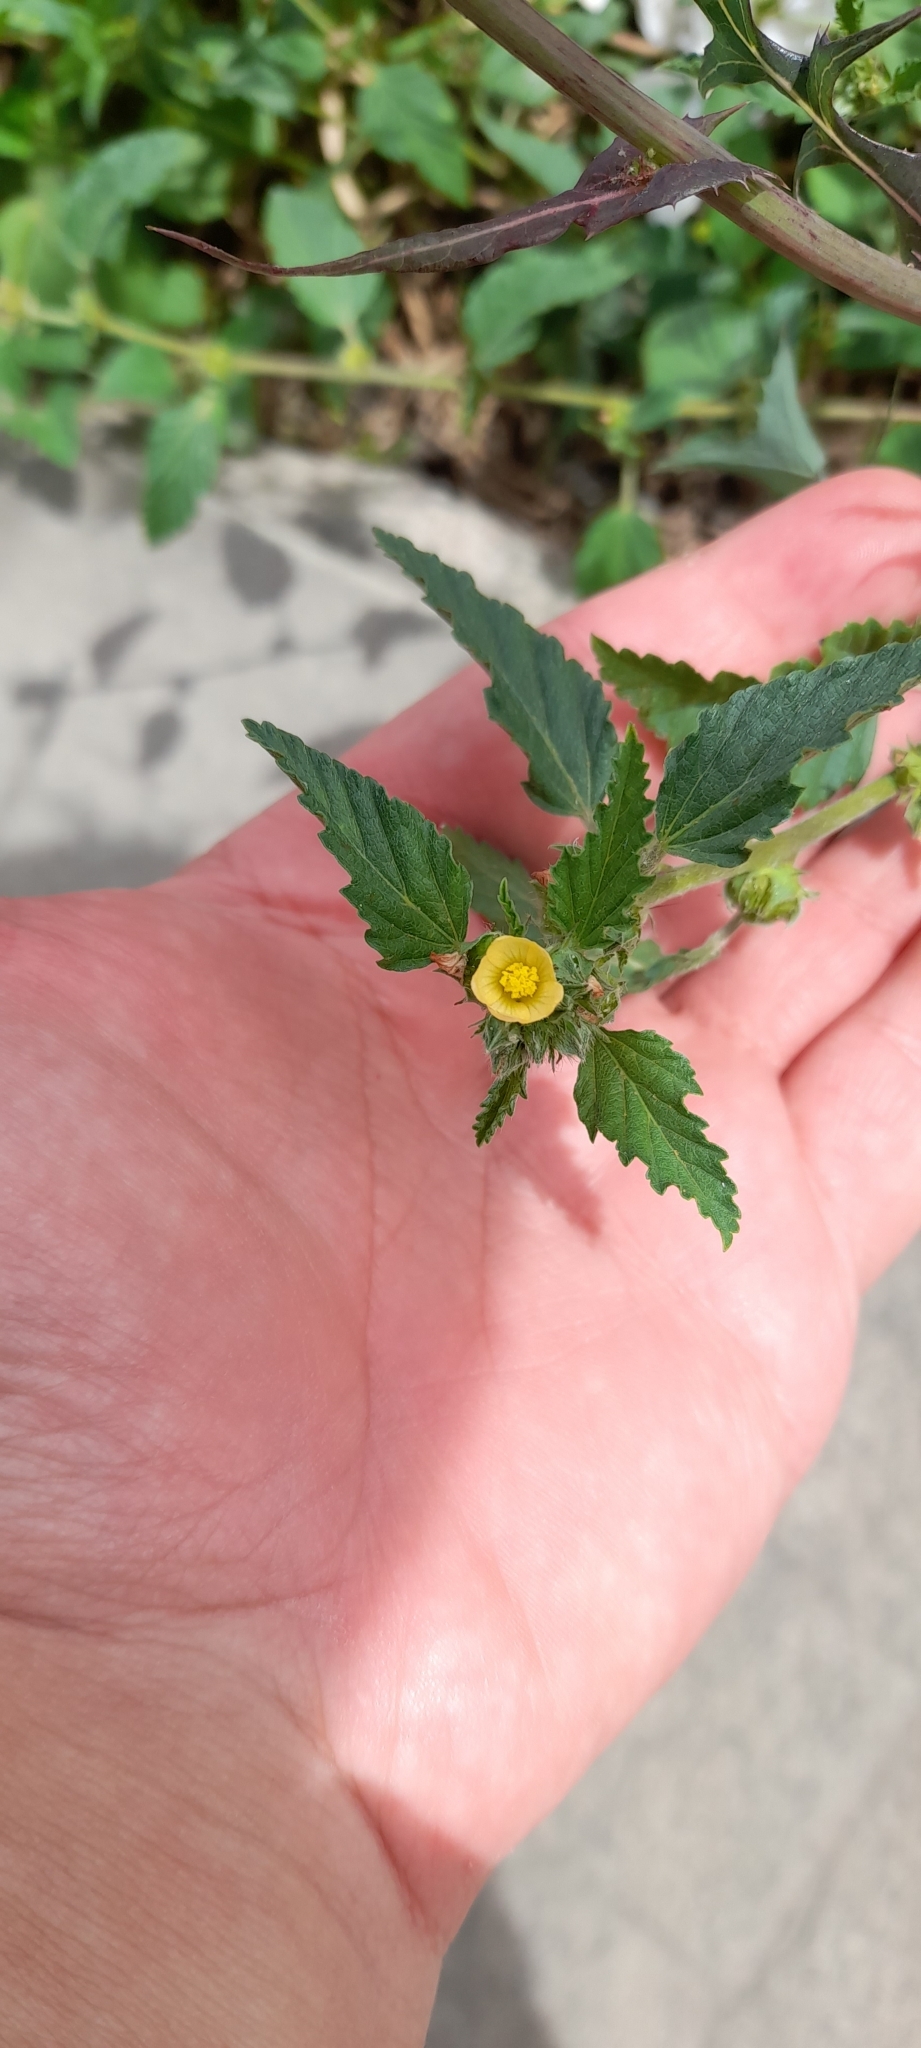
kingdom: Plantae
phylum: Tracheophyta
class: Magnoliopsida
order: Malvales
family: Malvaceae
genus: Malvastrum
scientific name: Malvastrum coromandelianum
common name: Threelobe false mallow
